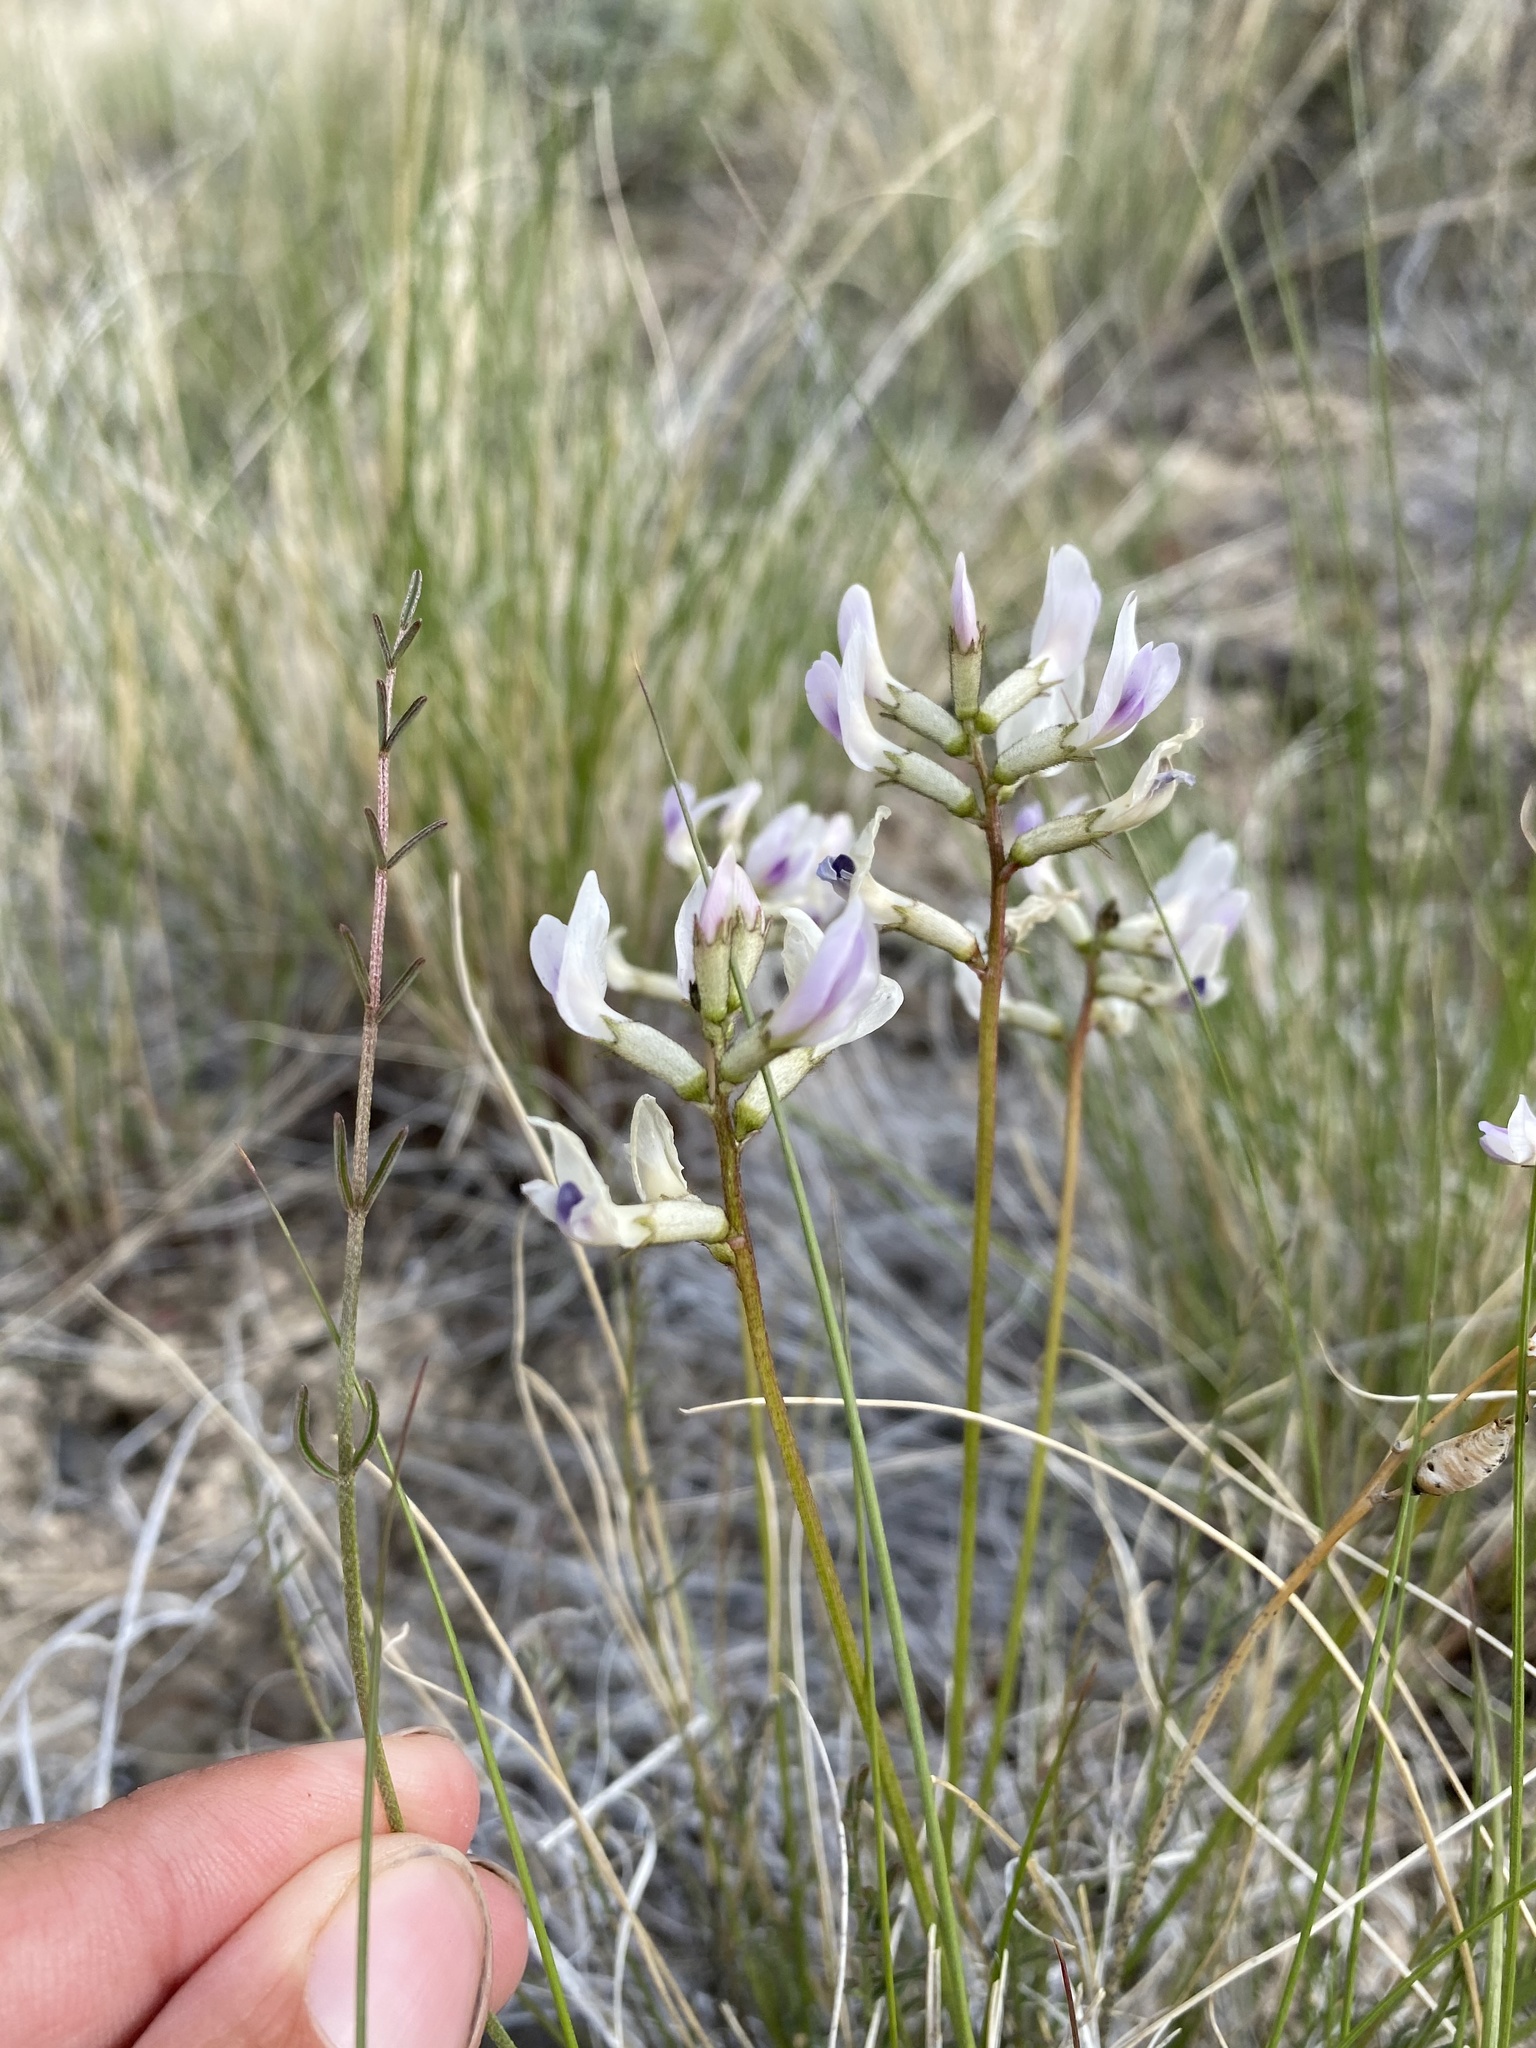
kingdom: Plantae
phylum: Tracheophyta
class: Magnoliopsida
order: Fabales
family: Fabaceae
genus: Astragalus
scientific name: Astragalus conjunctus
